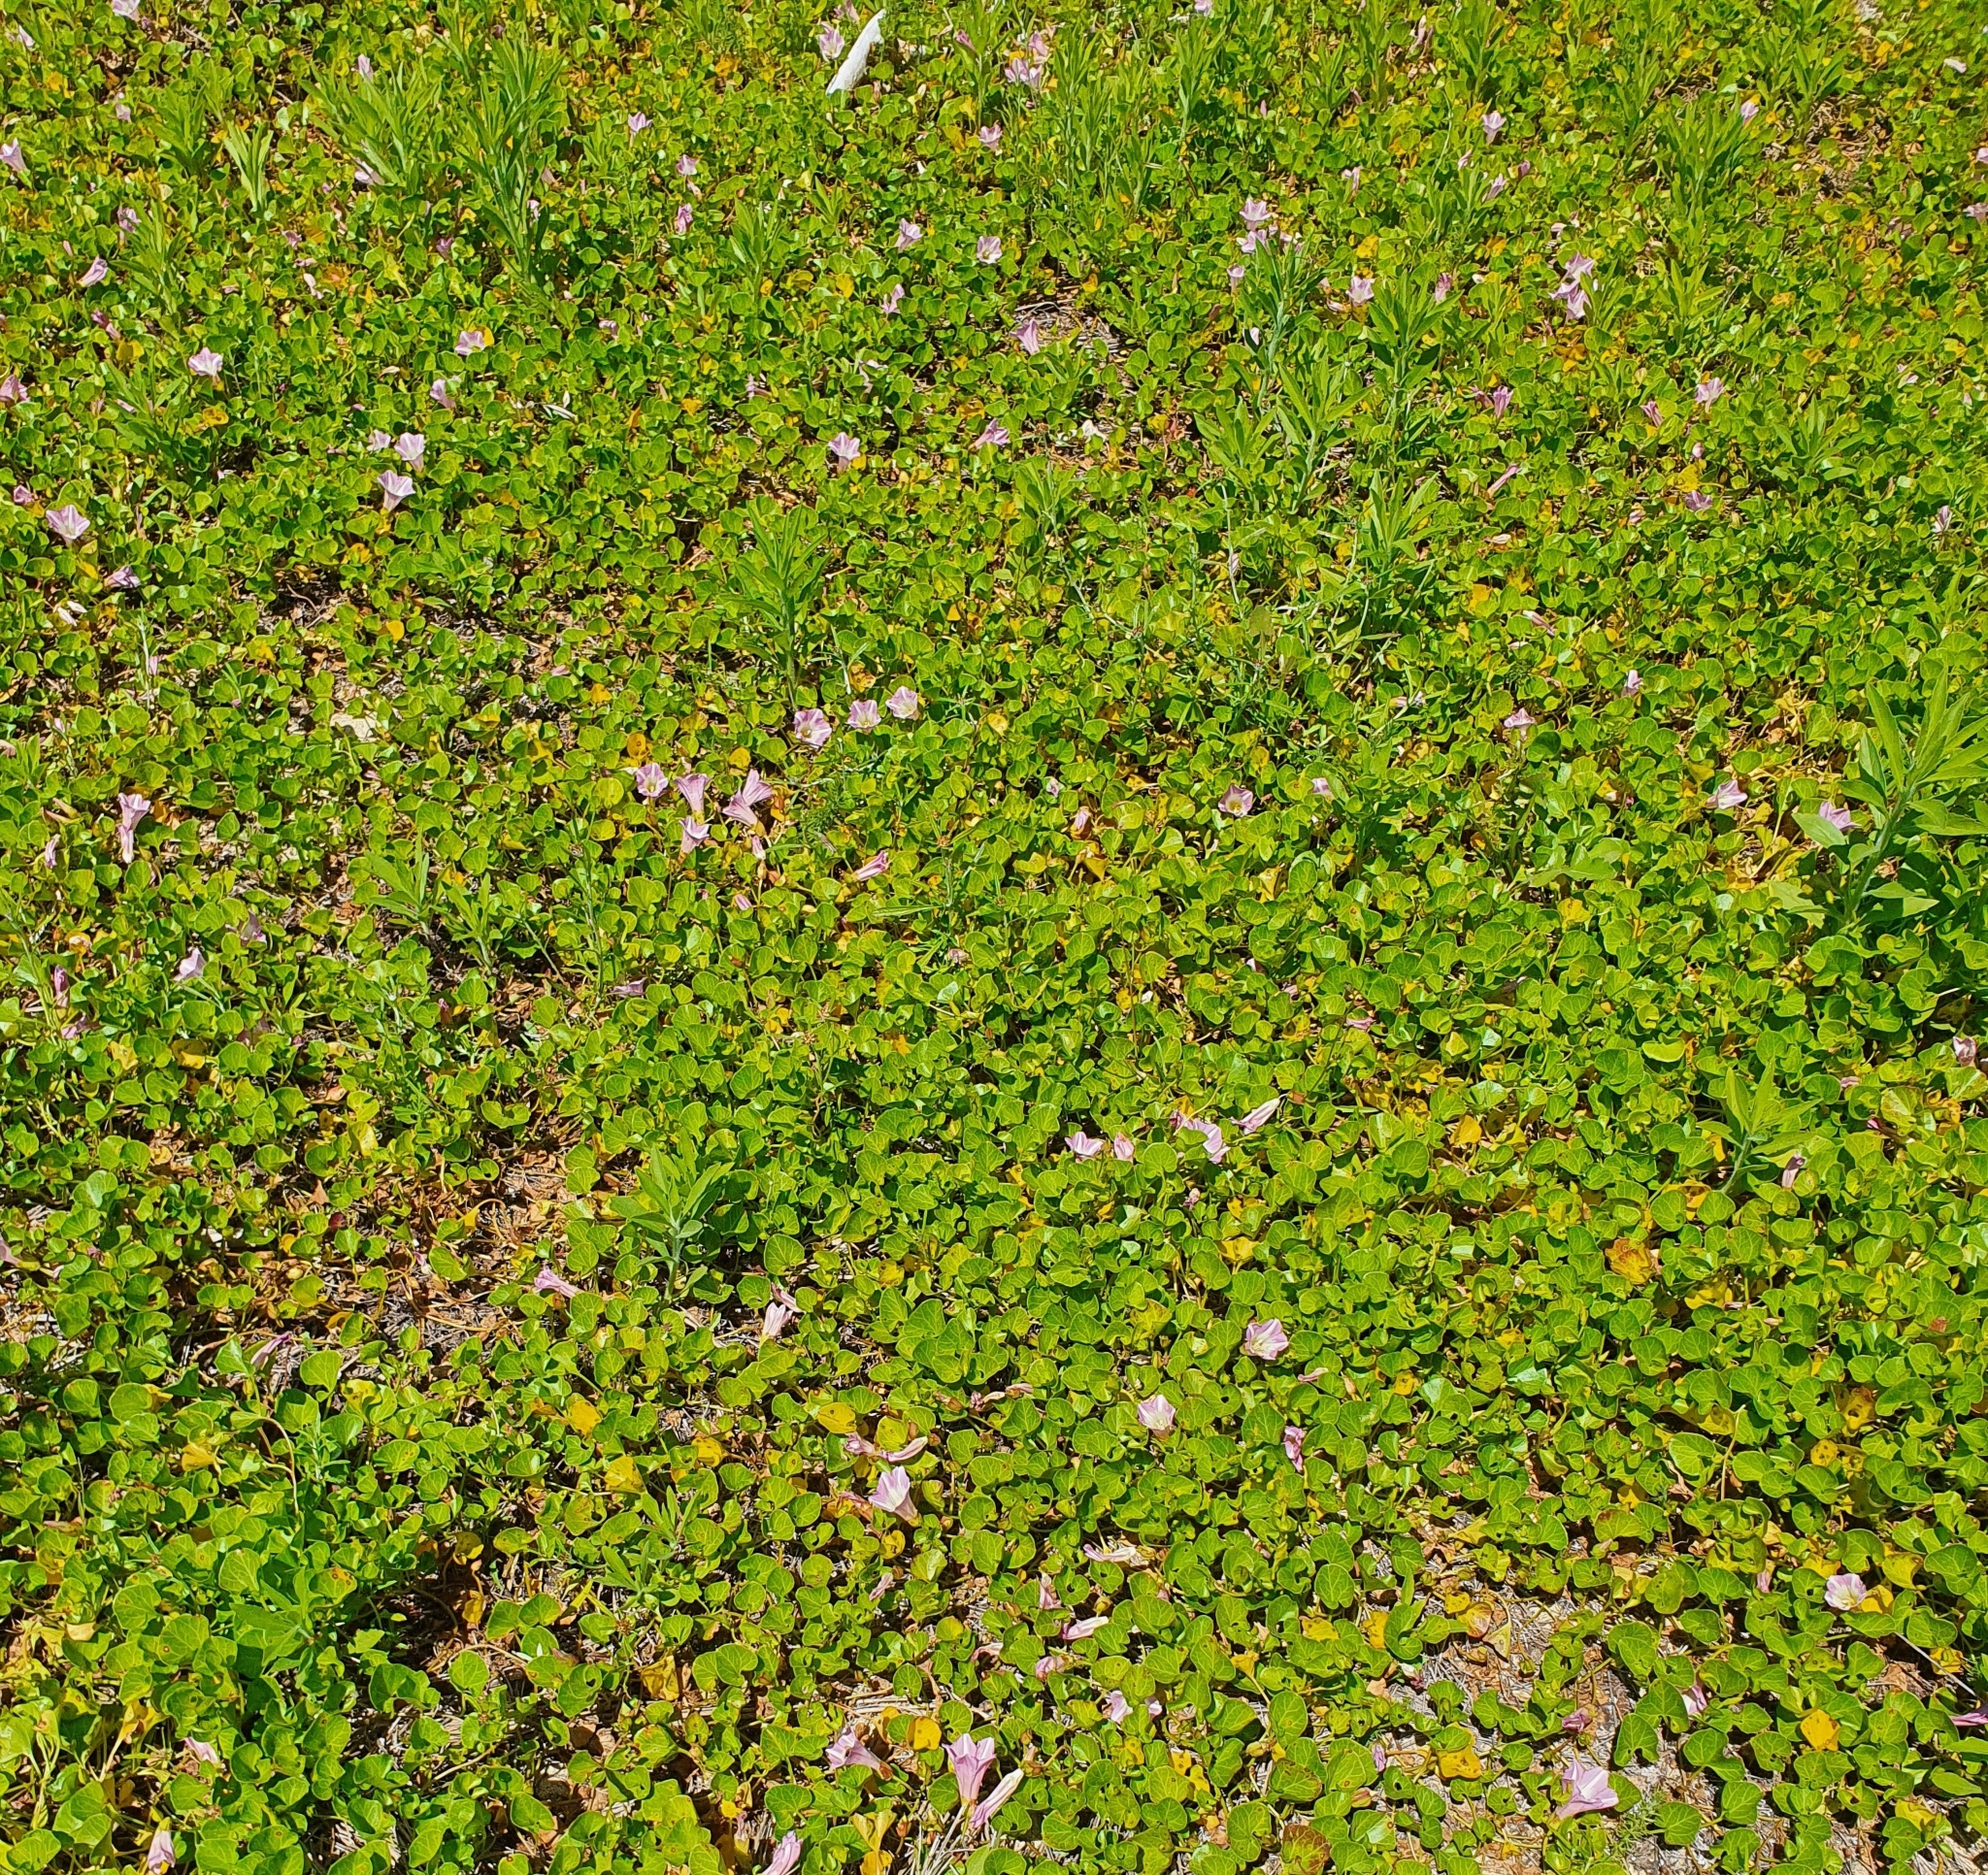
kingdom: Plantae
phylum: Tracheophyta
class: Magnoliopsida
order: Solanales
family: Convolvulaceae
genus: Calystegia
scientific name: Calystegia soldanella
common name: Sea bindweed
